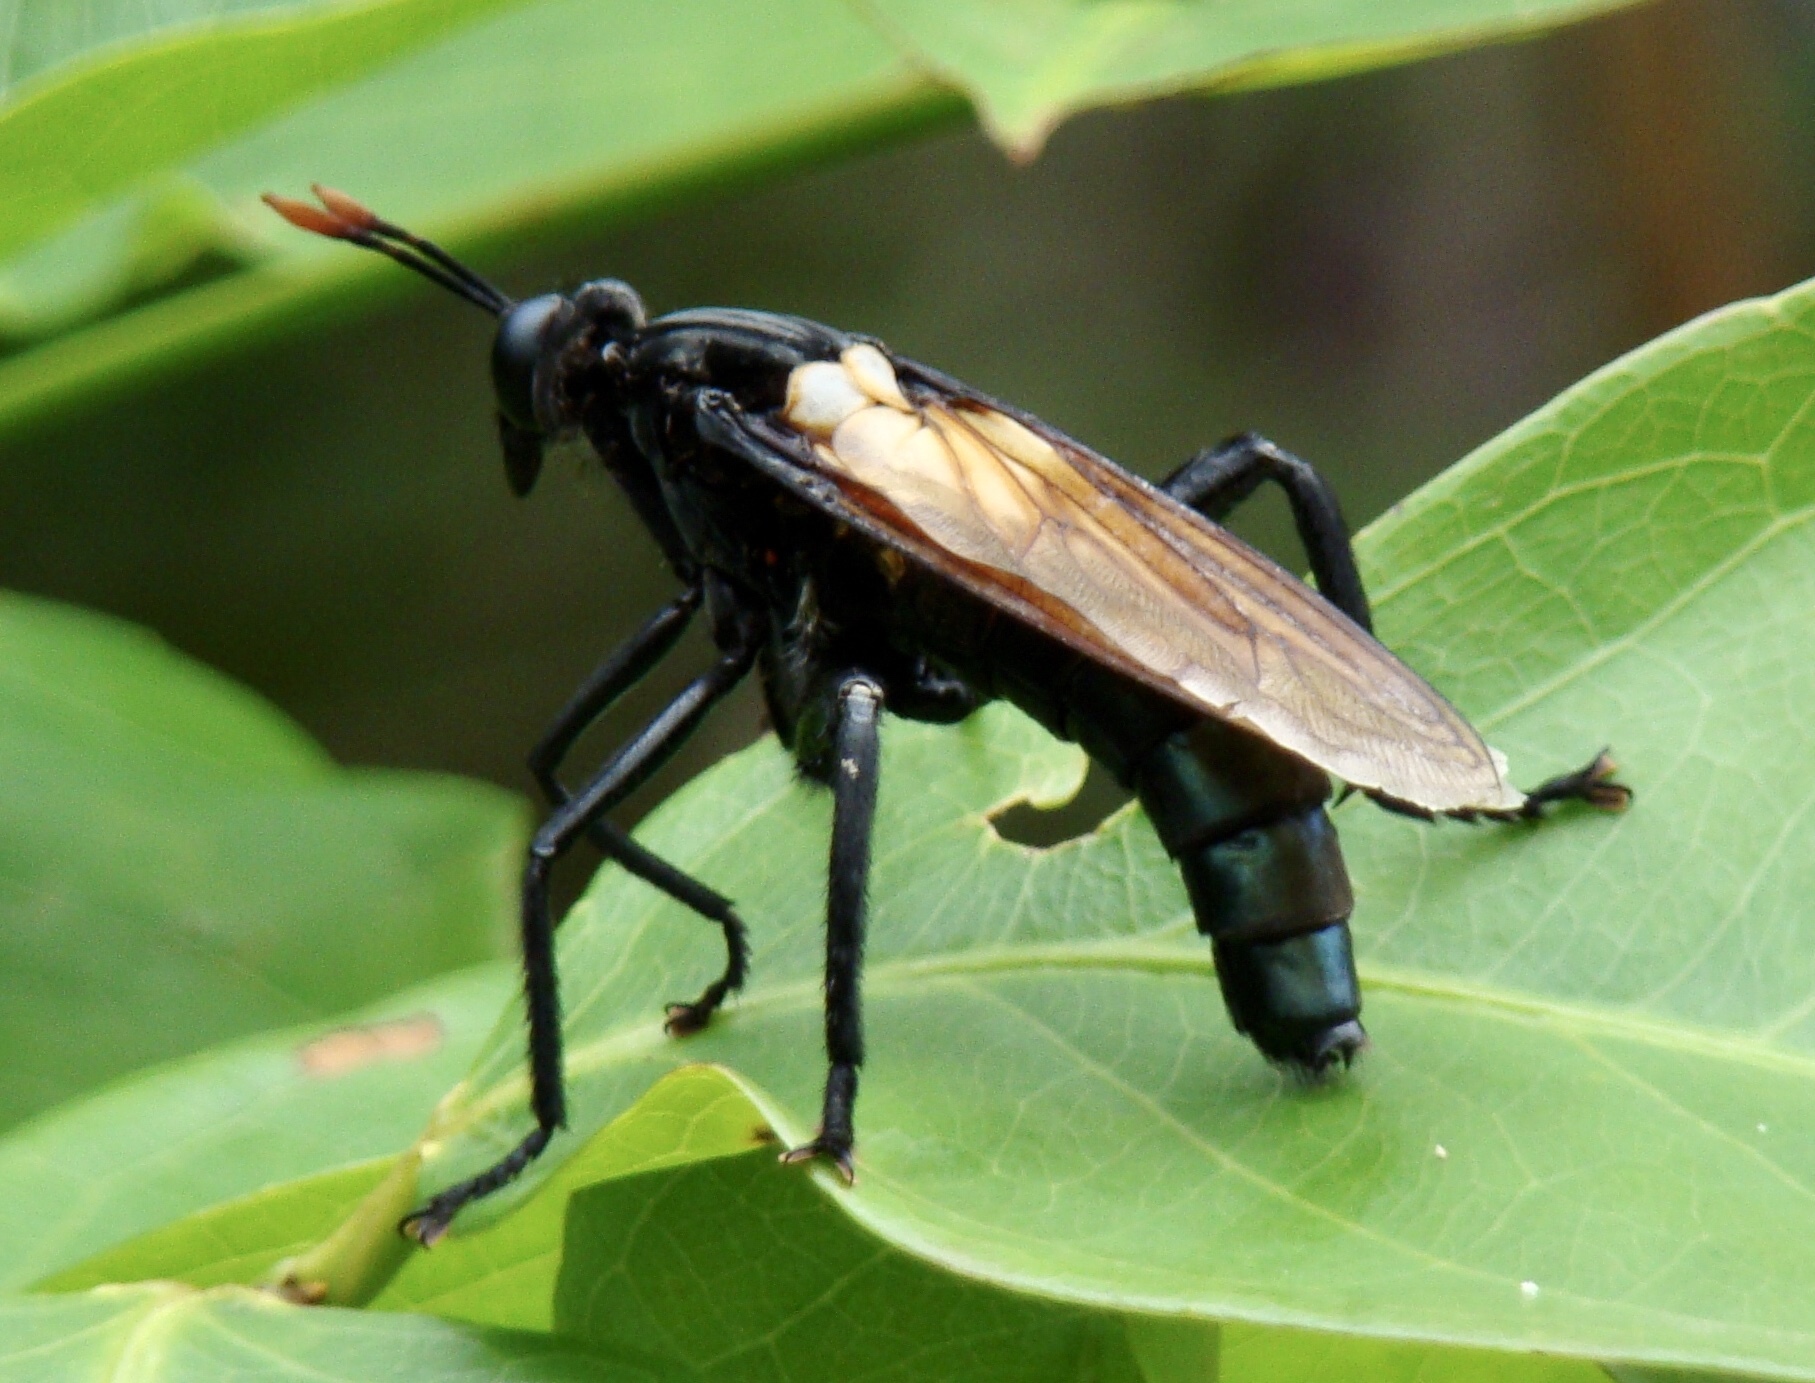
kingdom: Animalia
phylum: Arthropoda
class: Insecta
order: Diptera
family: Mydidae
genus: Gauromydas
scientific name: Gauromydas heros
